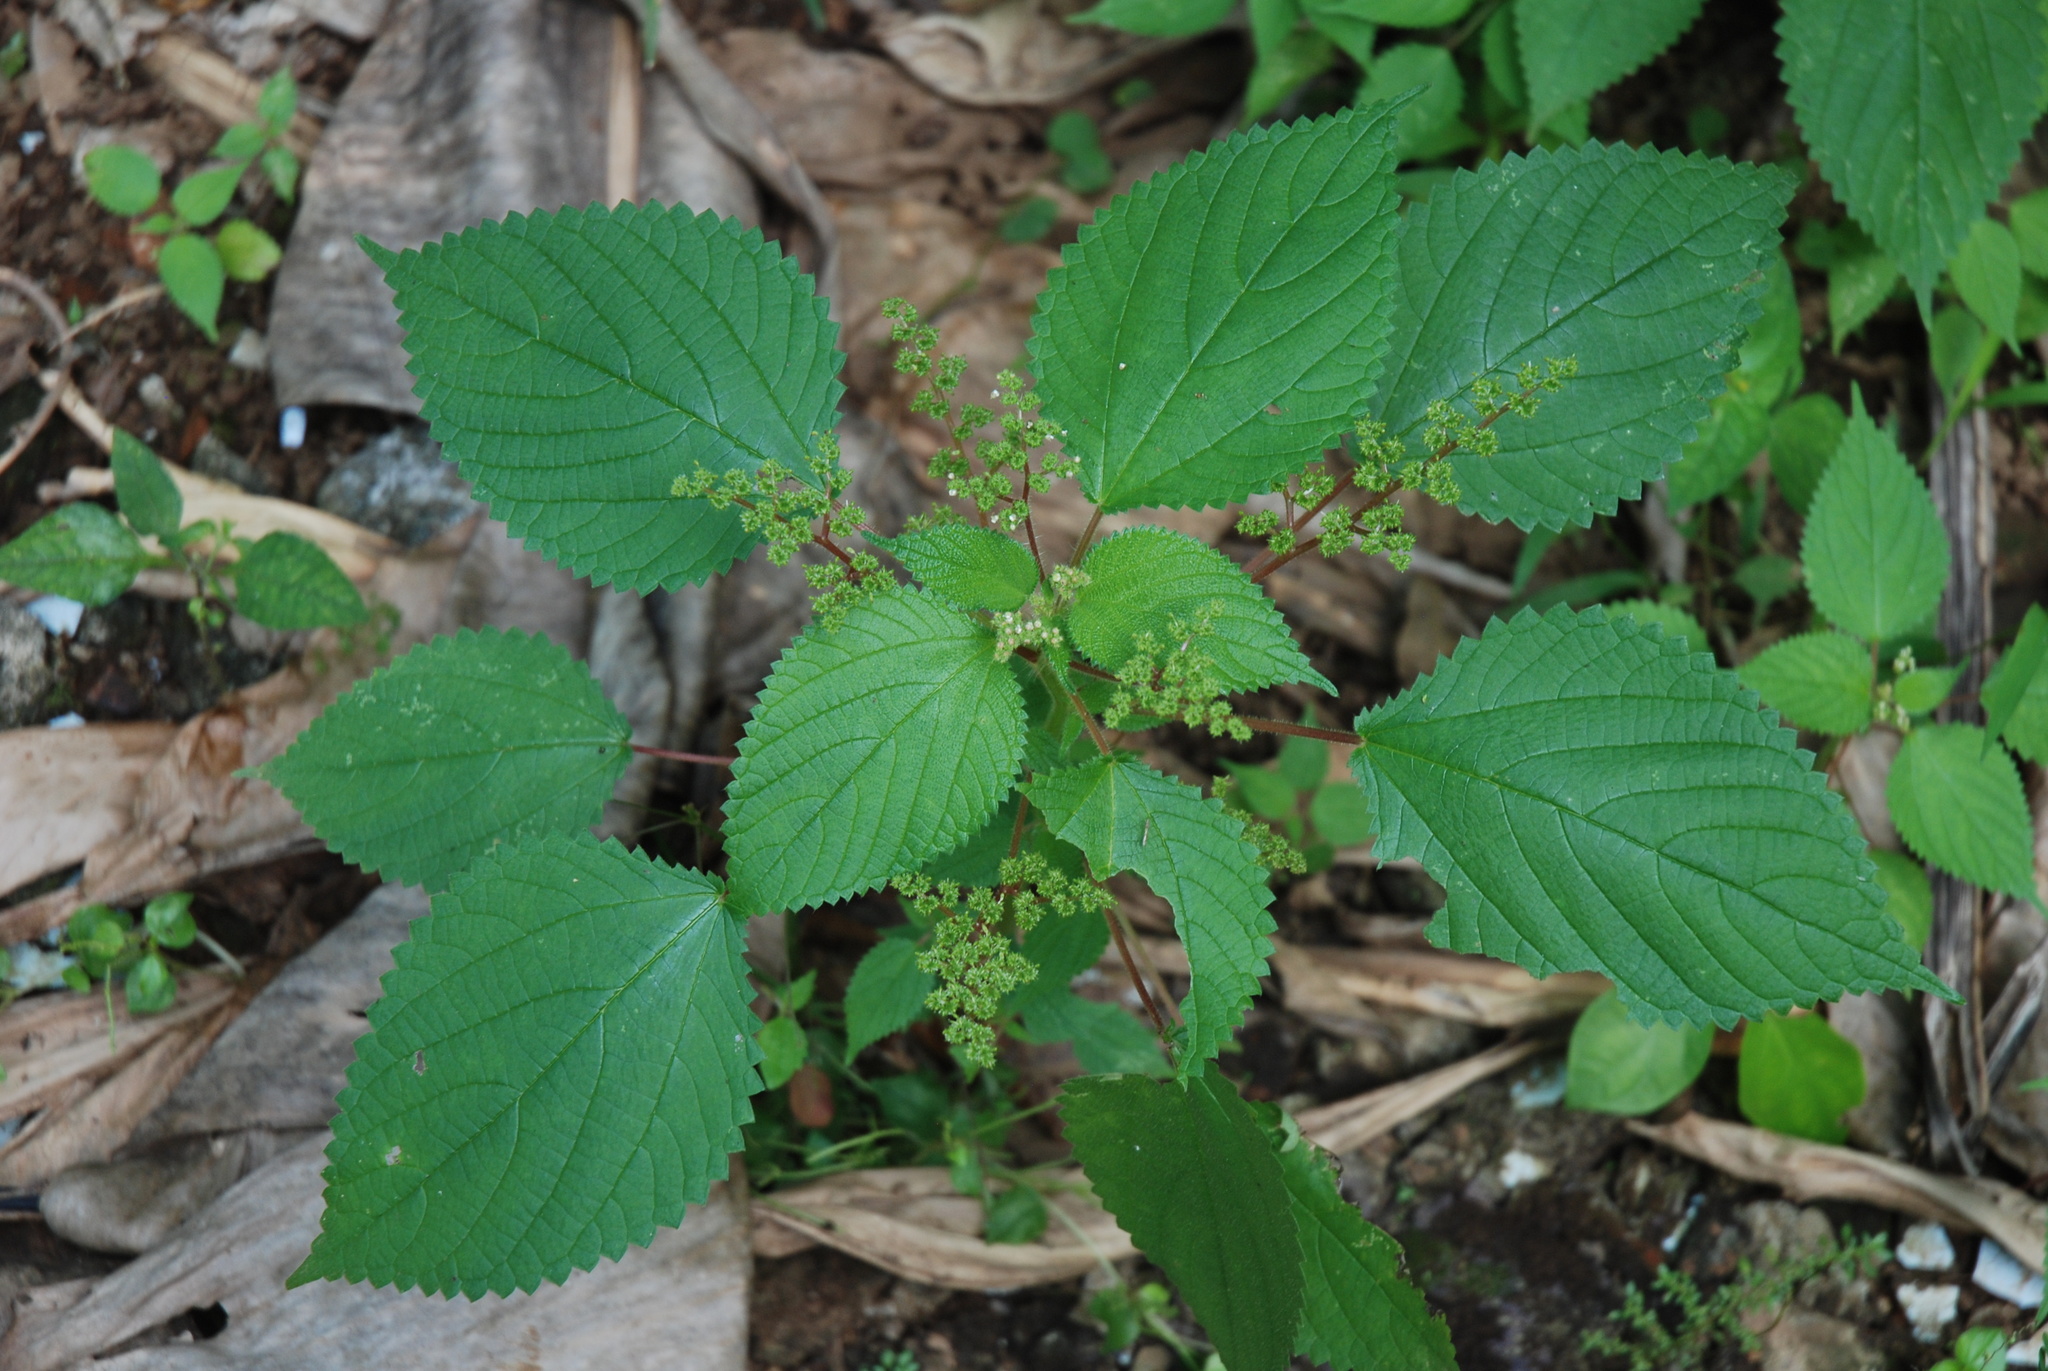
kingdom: Plantae
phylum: Tracheophyta
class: Magnoliopsida
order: Rosales
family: Urticaceae
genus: Laportea
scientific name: Laportea aestuans
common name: West indian woodnettle
